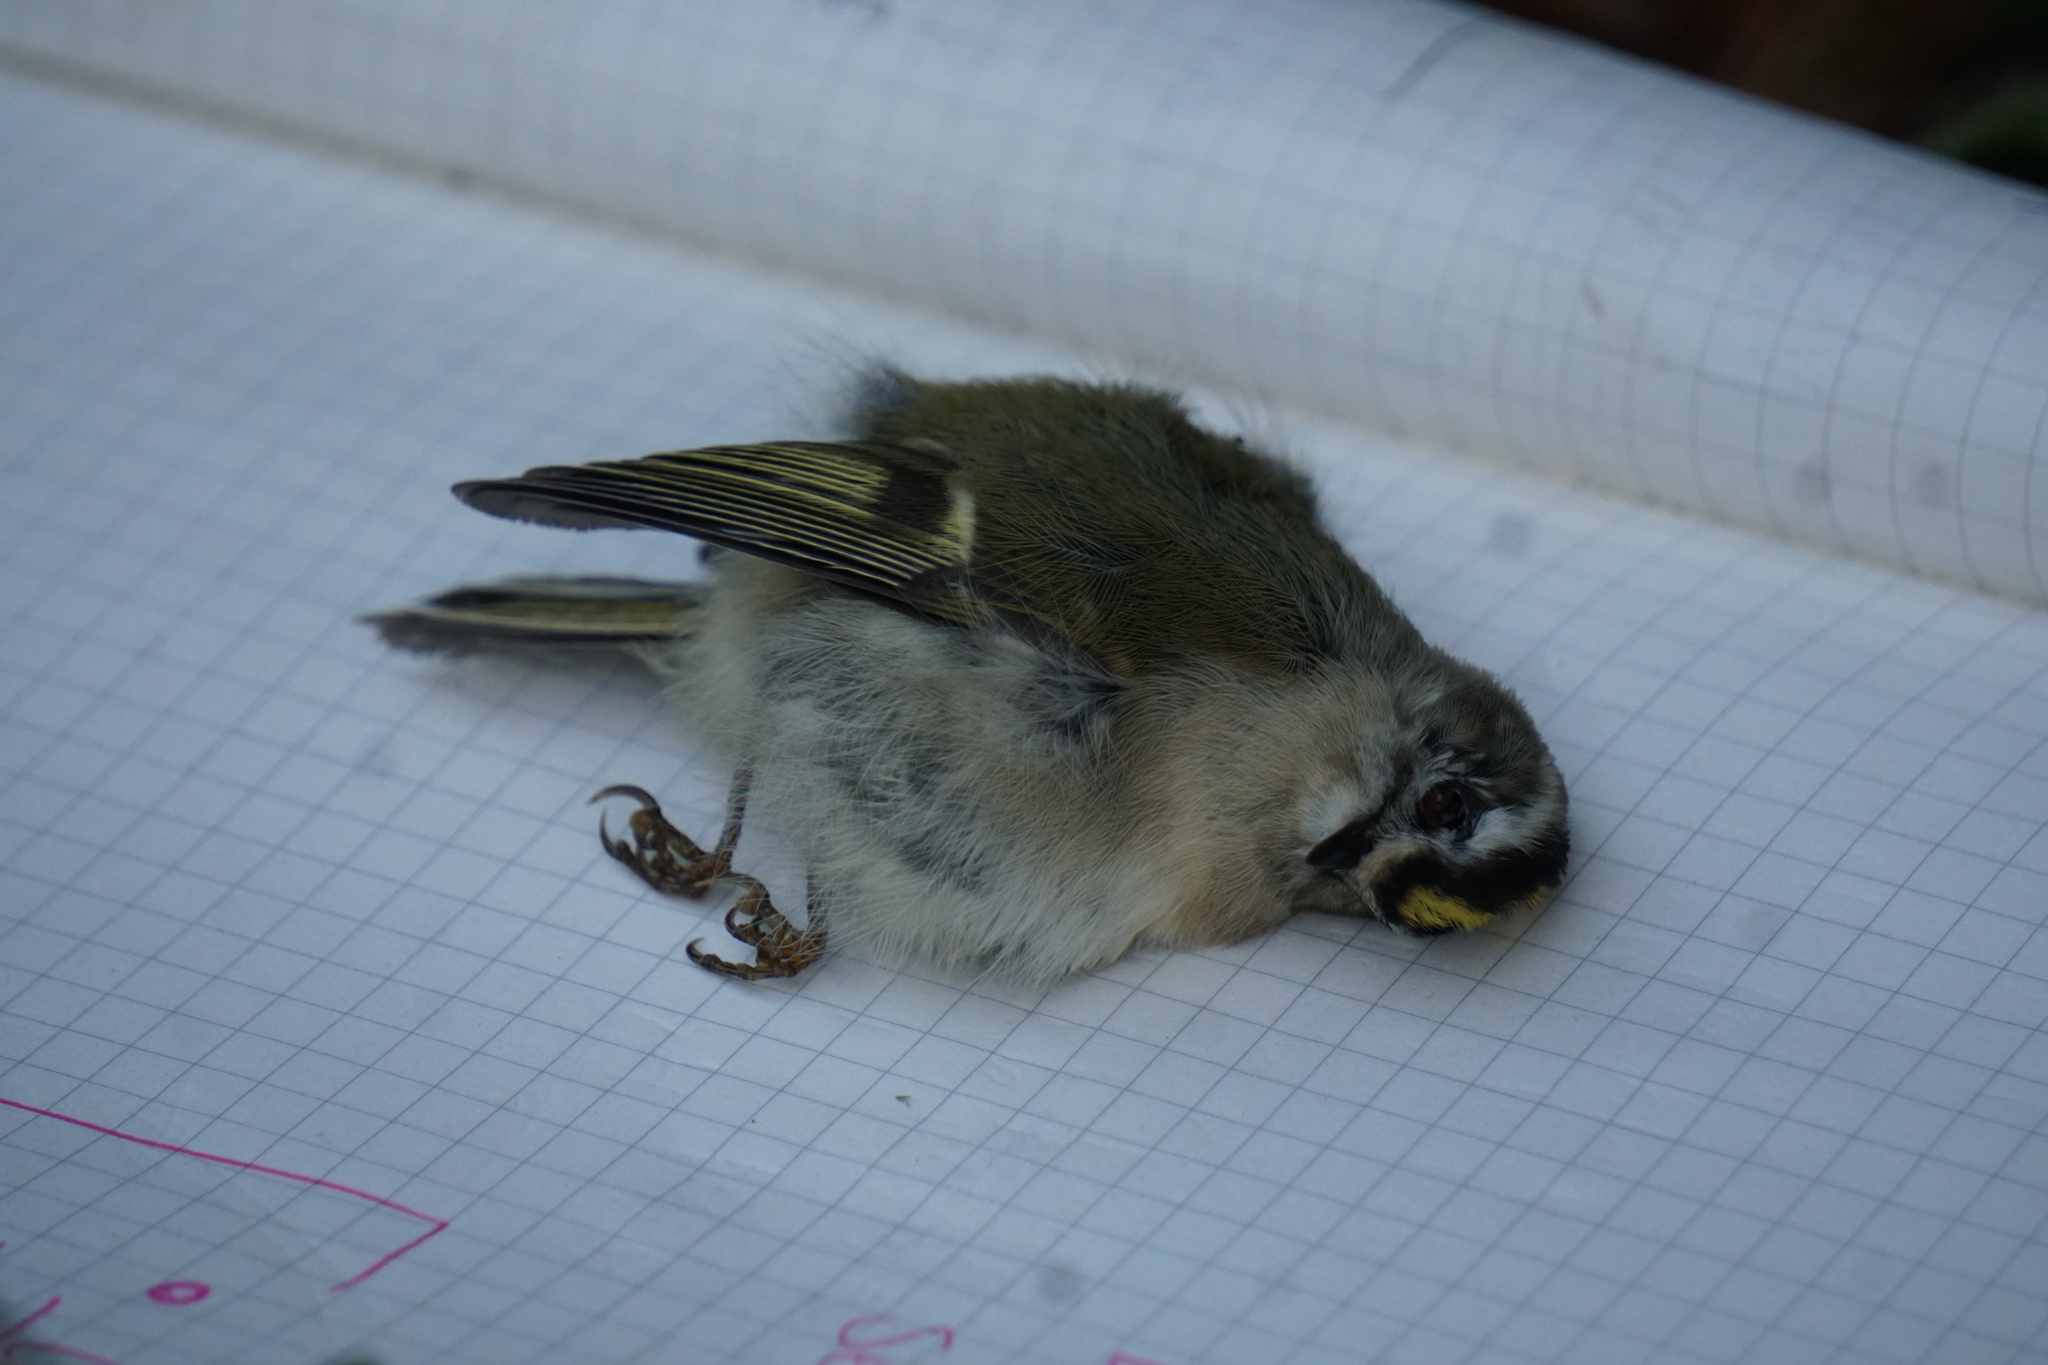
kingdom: Animalia
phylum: Chordata
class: Aves
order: Passeriformes
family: Regulidae
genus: Regulus
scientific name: Regulus satrapa
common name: Golden-crowned kinglet
